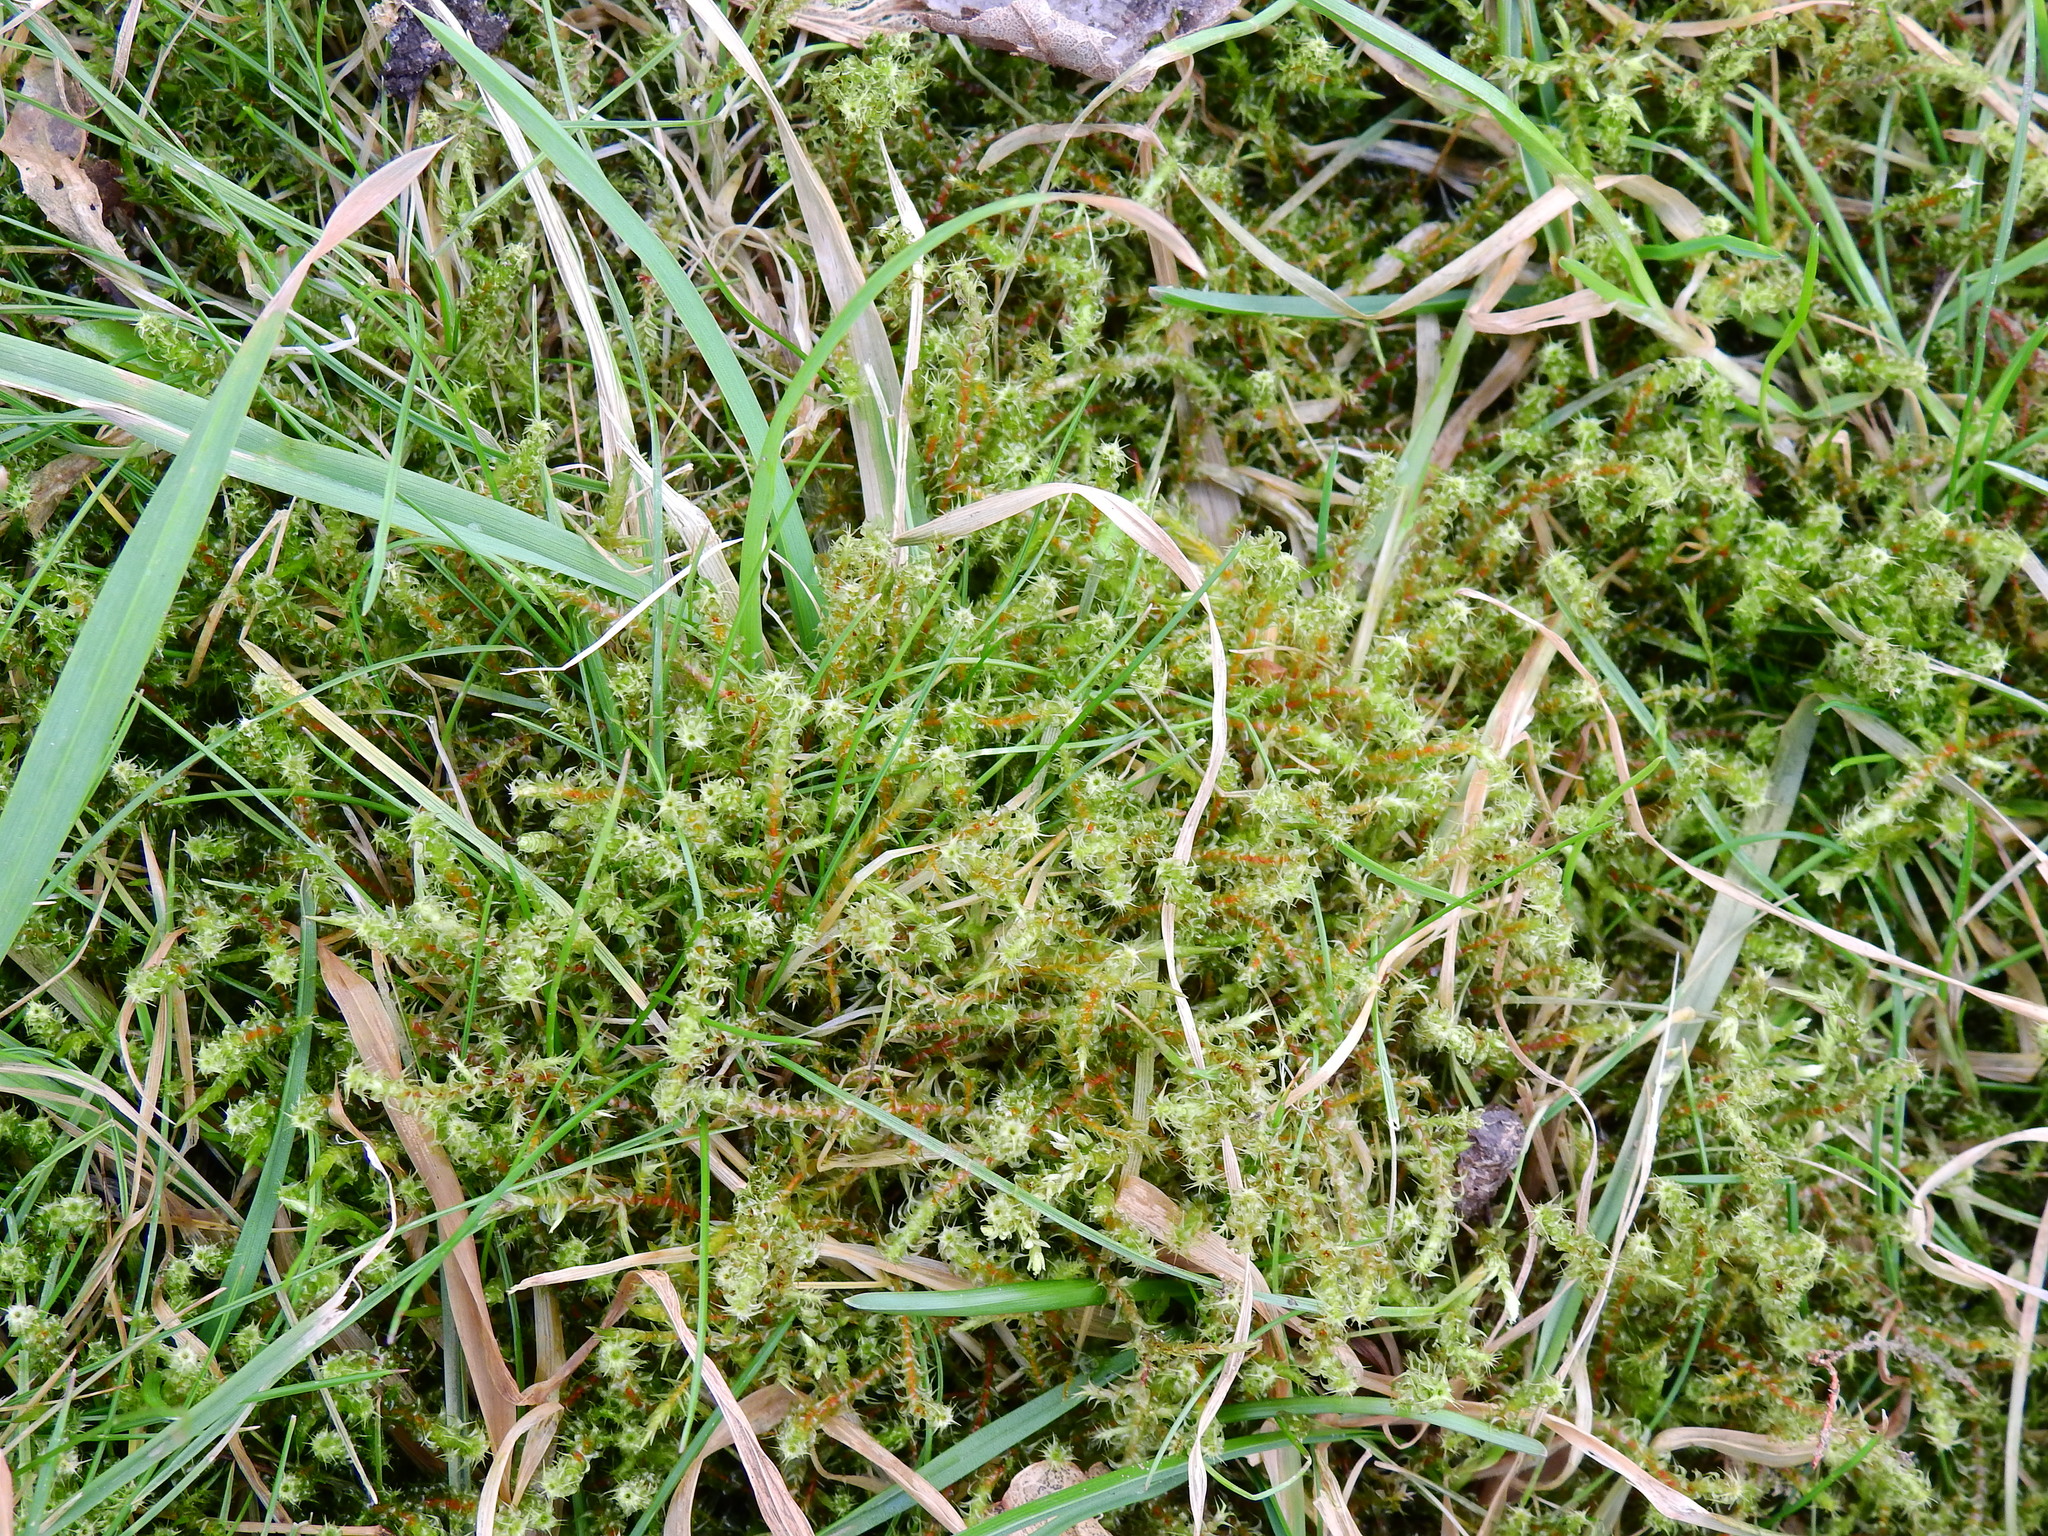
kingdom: Plantae
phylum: Bryophyta
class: Bryopsida
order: Hypnales
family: Hylocomiaceae
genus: Rhytidiadelphus
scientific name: Rhytidiadelphus squarrosus
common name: Springy turf-moss
